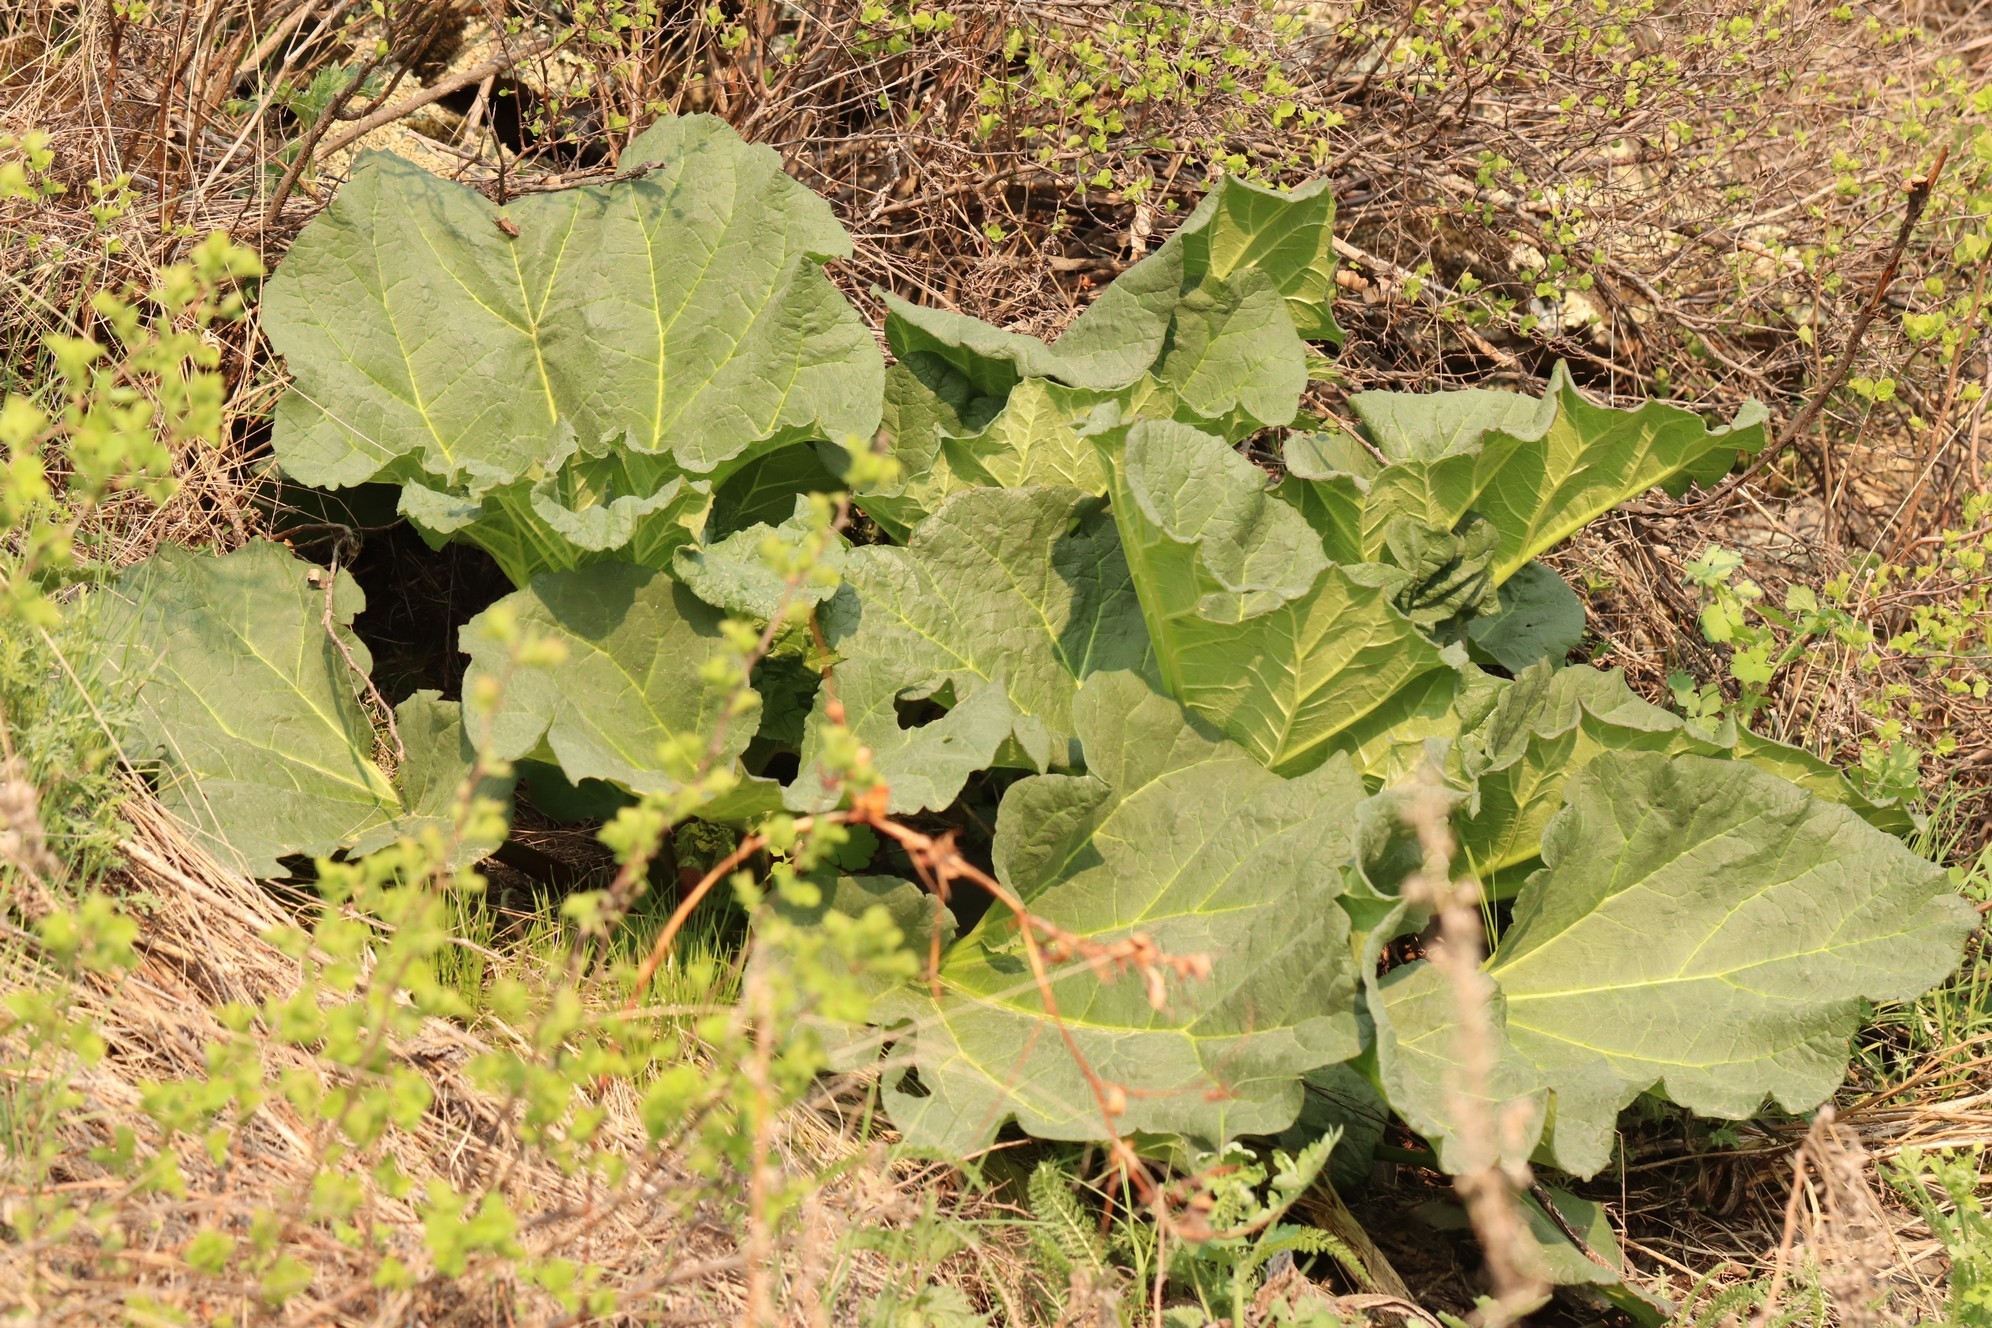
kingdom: Plantae
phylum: Tracheophyta
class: Magnoliopsida
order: Caryophyllales
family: Polygonaceae
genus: Rheum
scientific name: Rheum compactum
